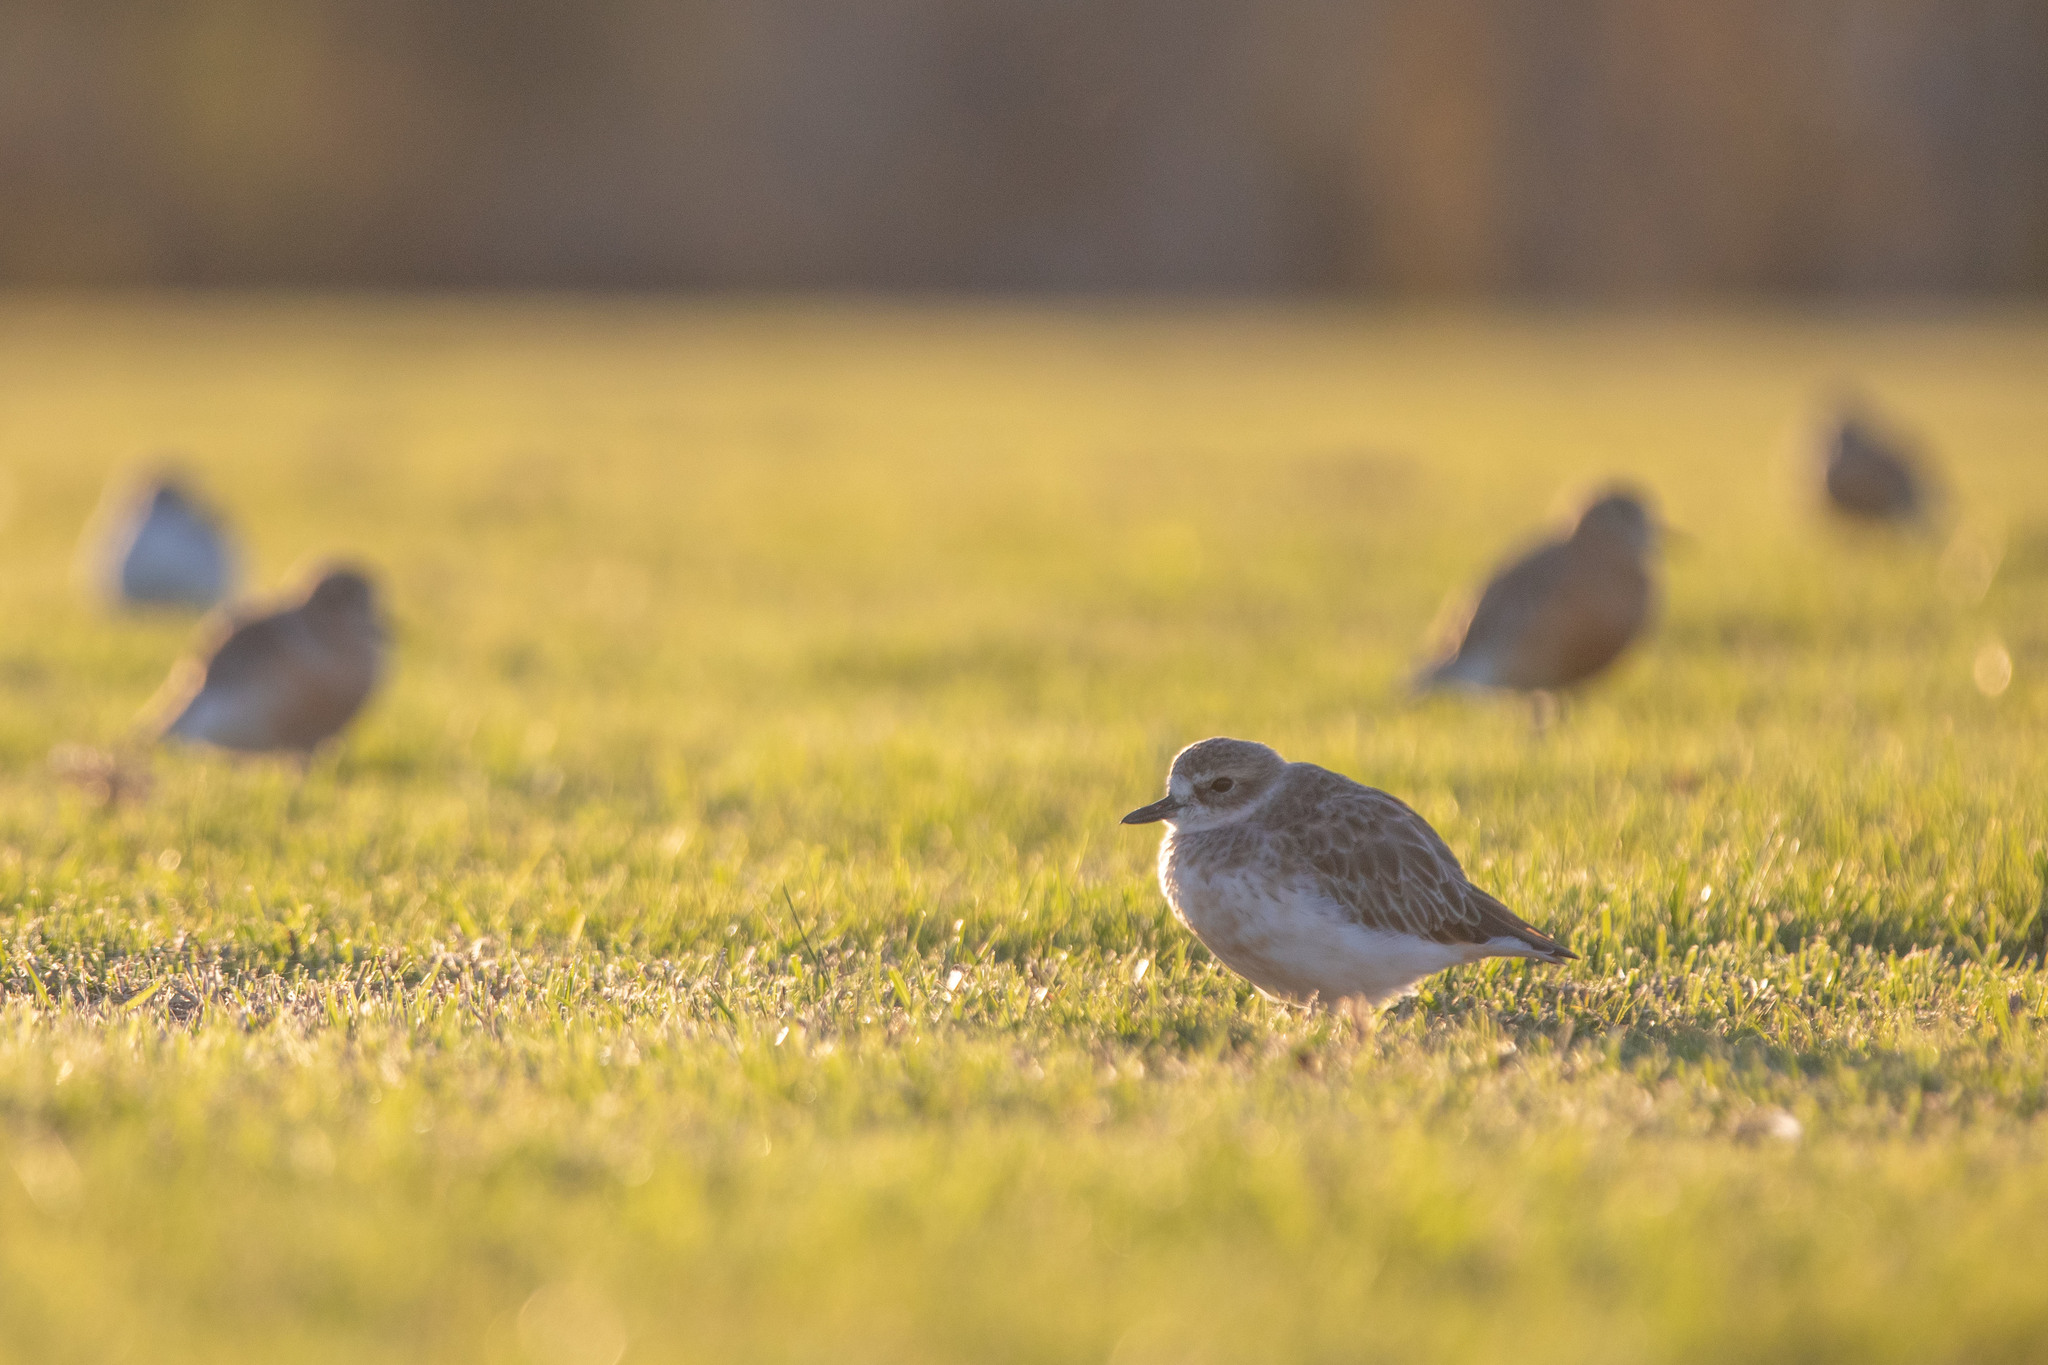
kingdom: Animalia
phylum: Chordata
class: Aves
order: Charadriiformes
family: Charadriidae
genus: Anarhynchus
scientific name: Anarhynchus
